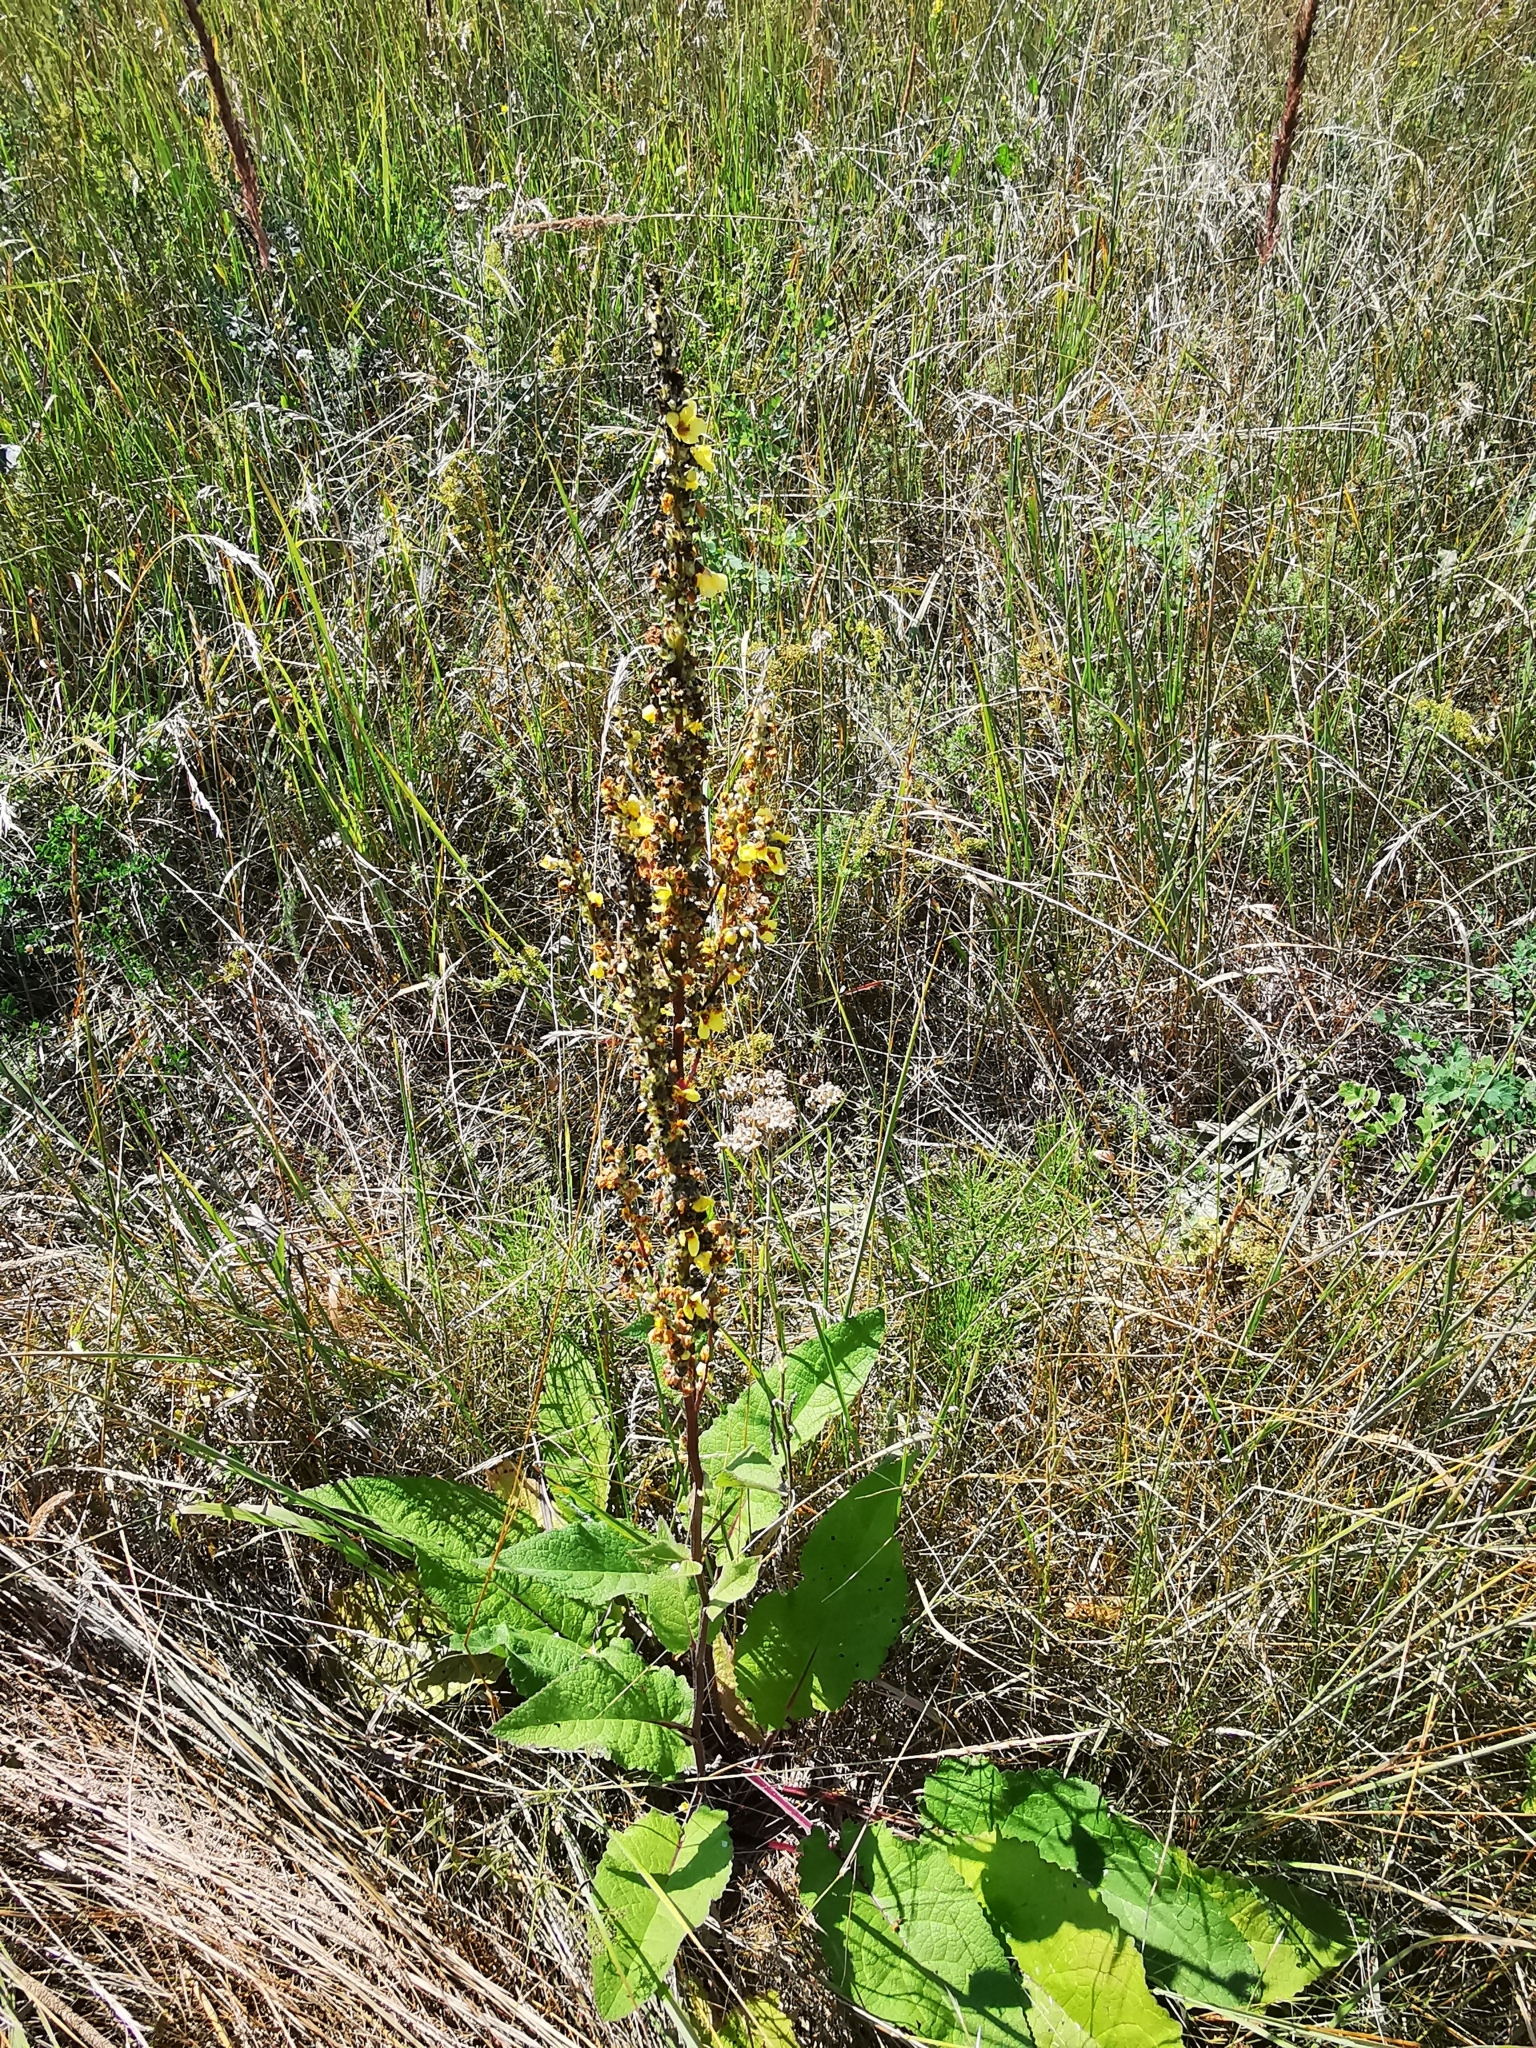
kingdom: Plantae
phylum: Tracheophyta
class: Magnoliopsida
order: Lamiales
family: Scrophulariaceae
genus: Verbascum
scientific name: Verbascum nigrum
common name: Dark mullein
